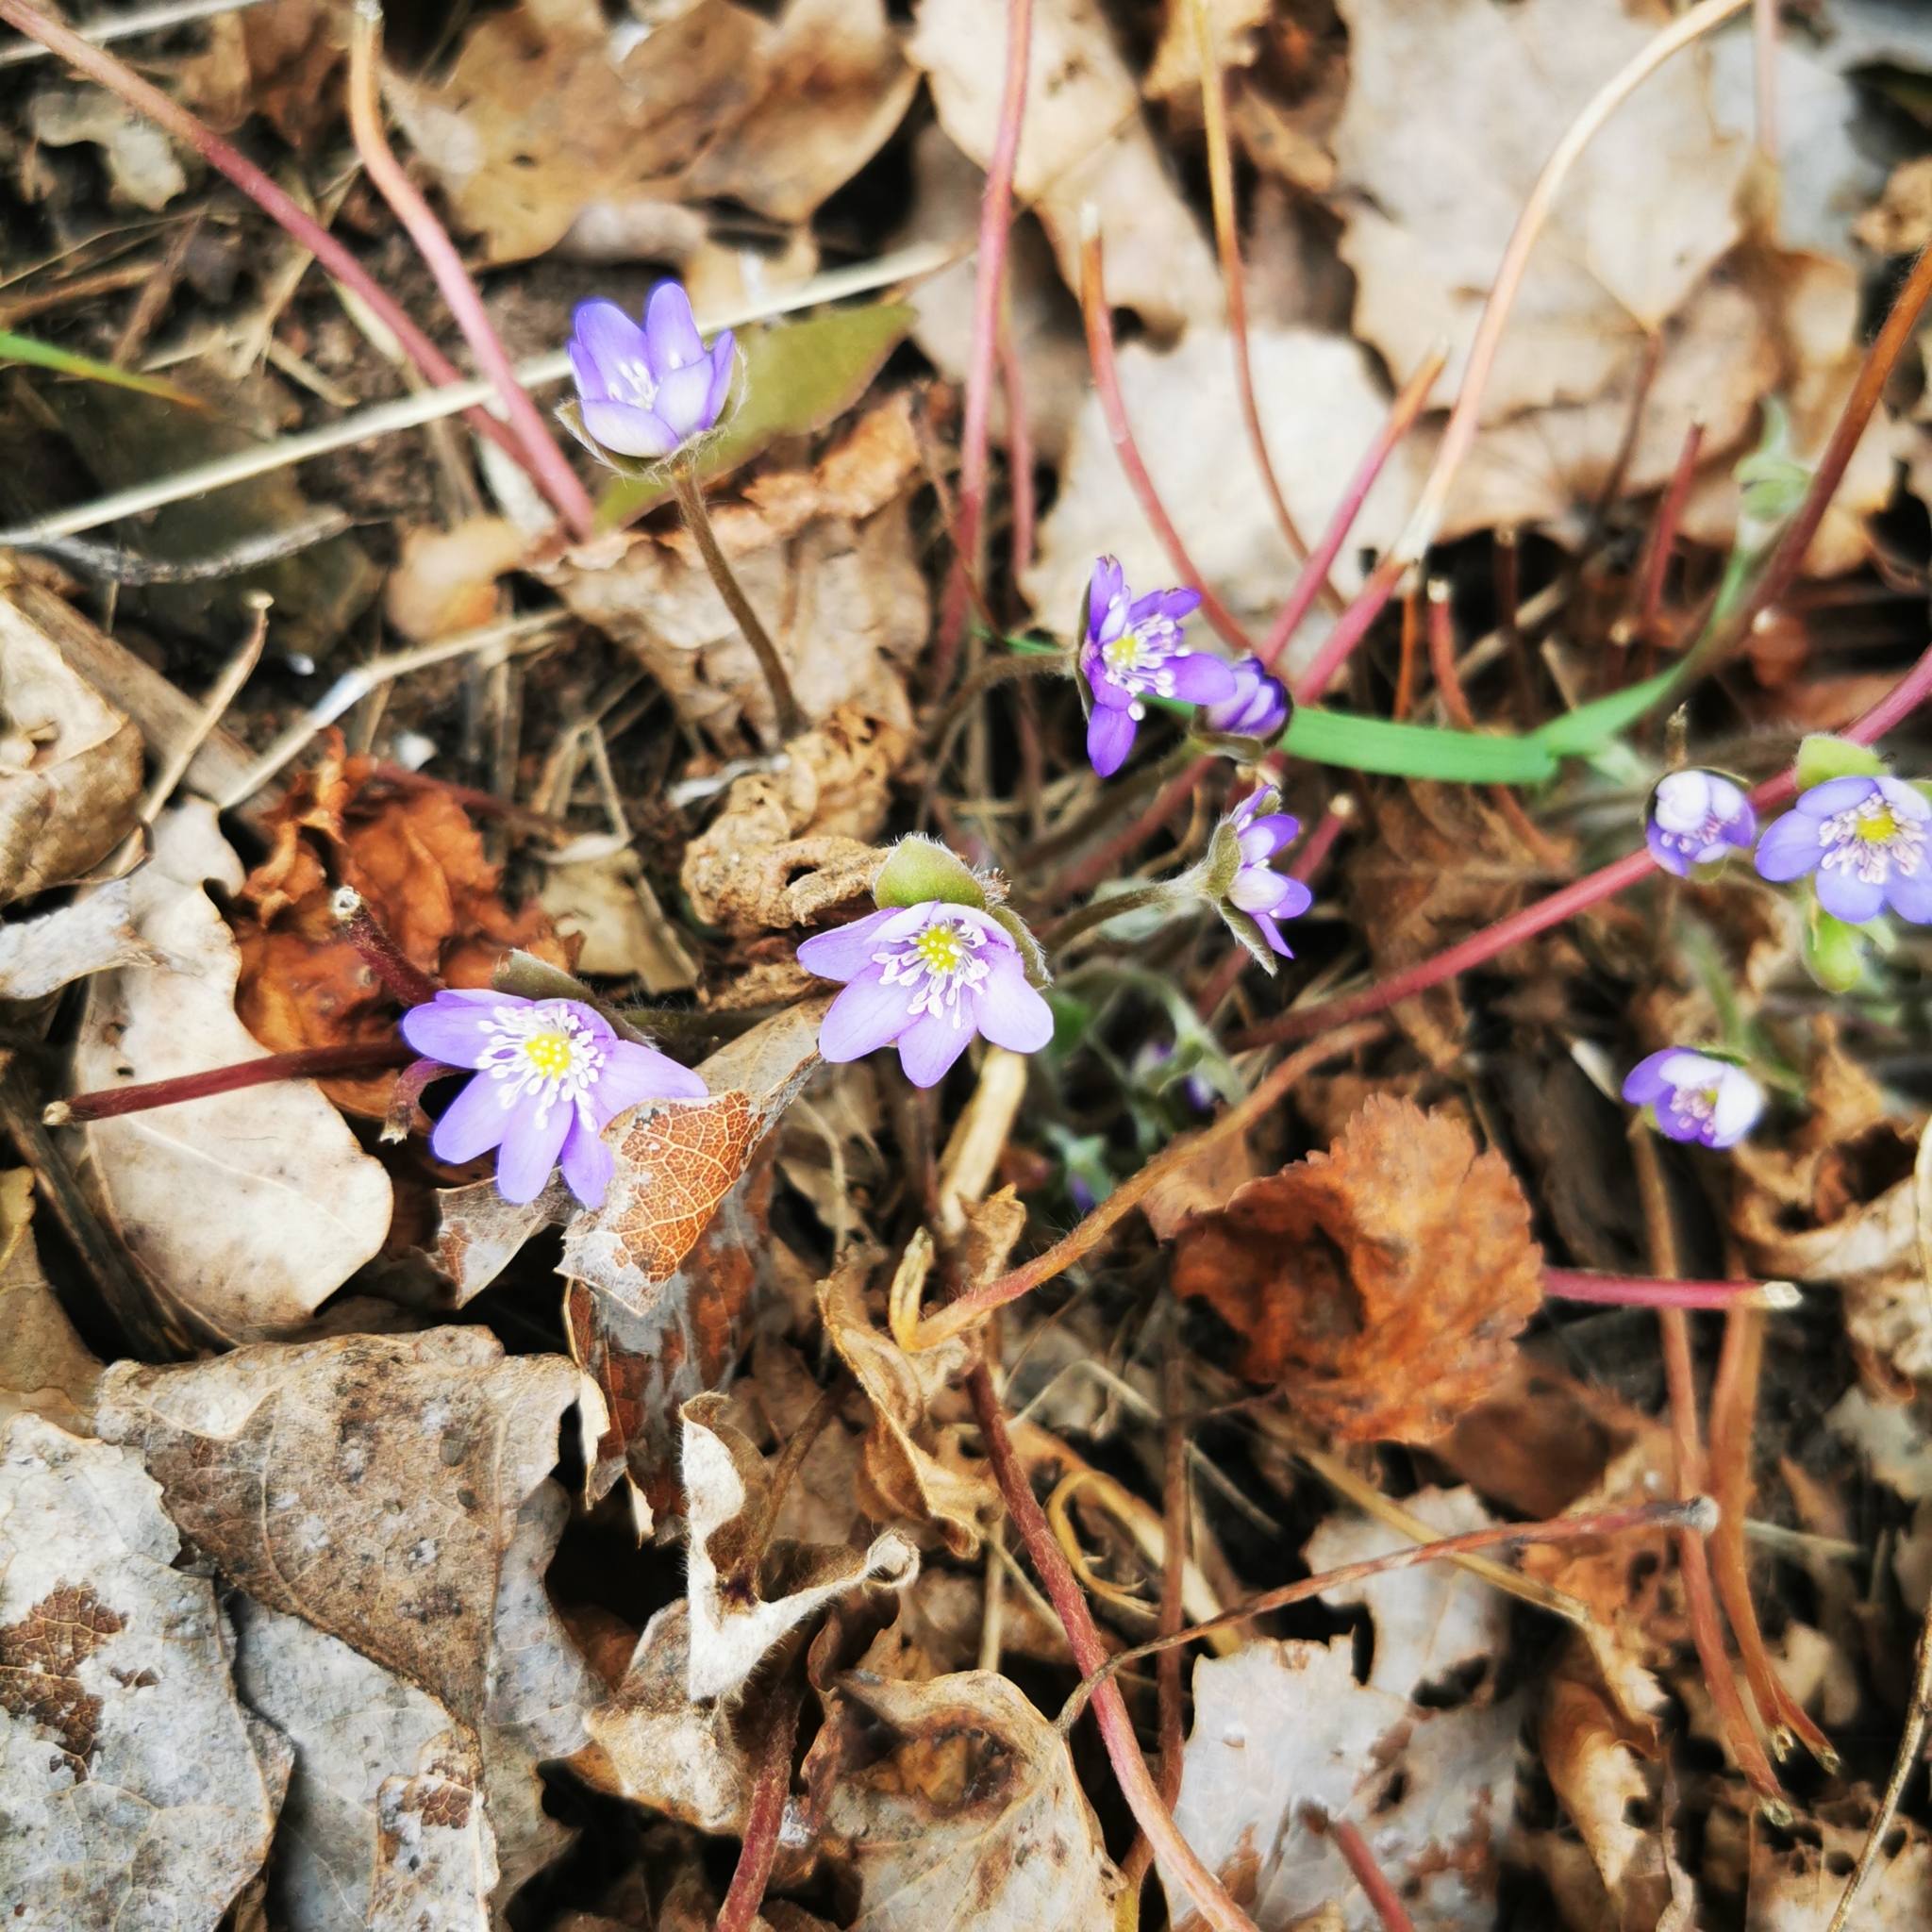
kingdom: Plantae
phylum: Tracheophyta
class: Magnoliopsida
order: Ranunculales
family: Ranunculaceae
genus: Hepatica
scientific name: Hepatica nobilis
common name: Liverleaf
